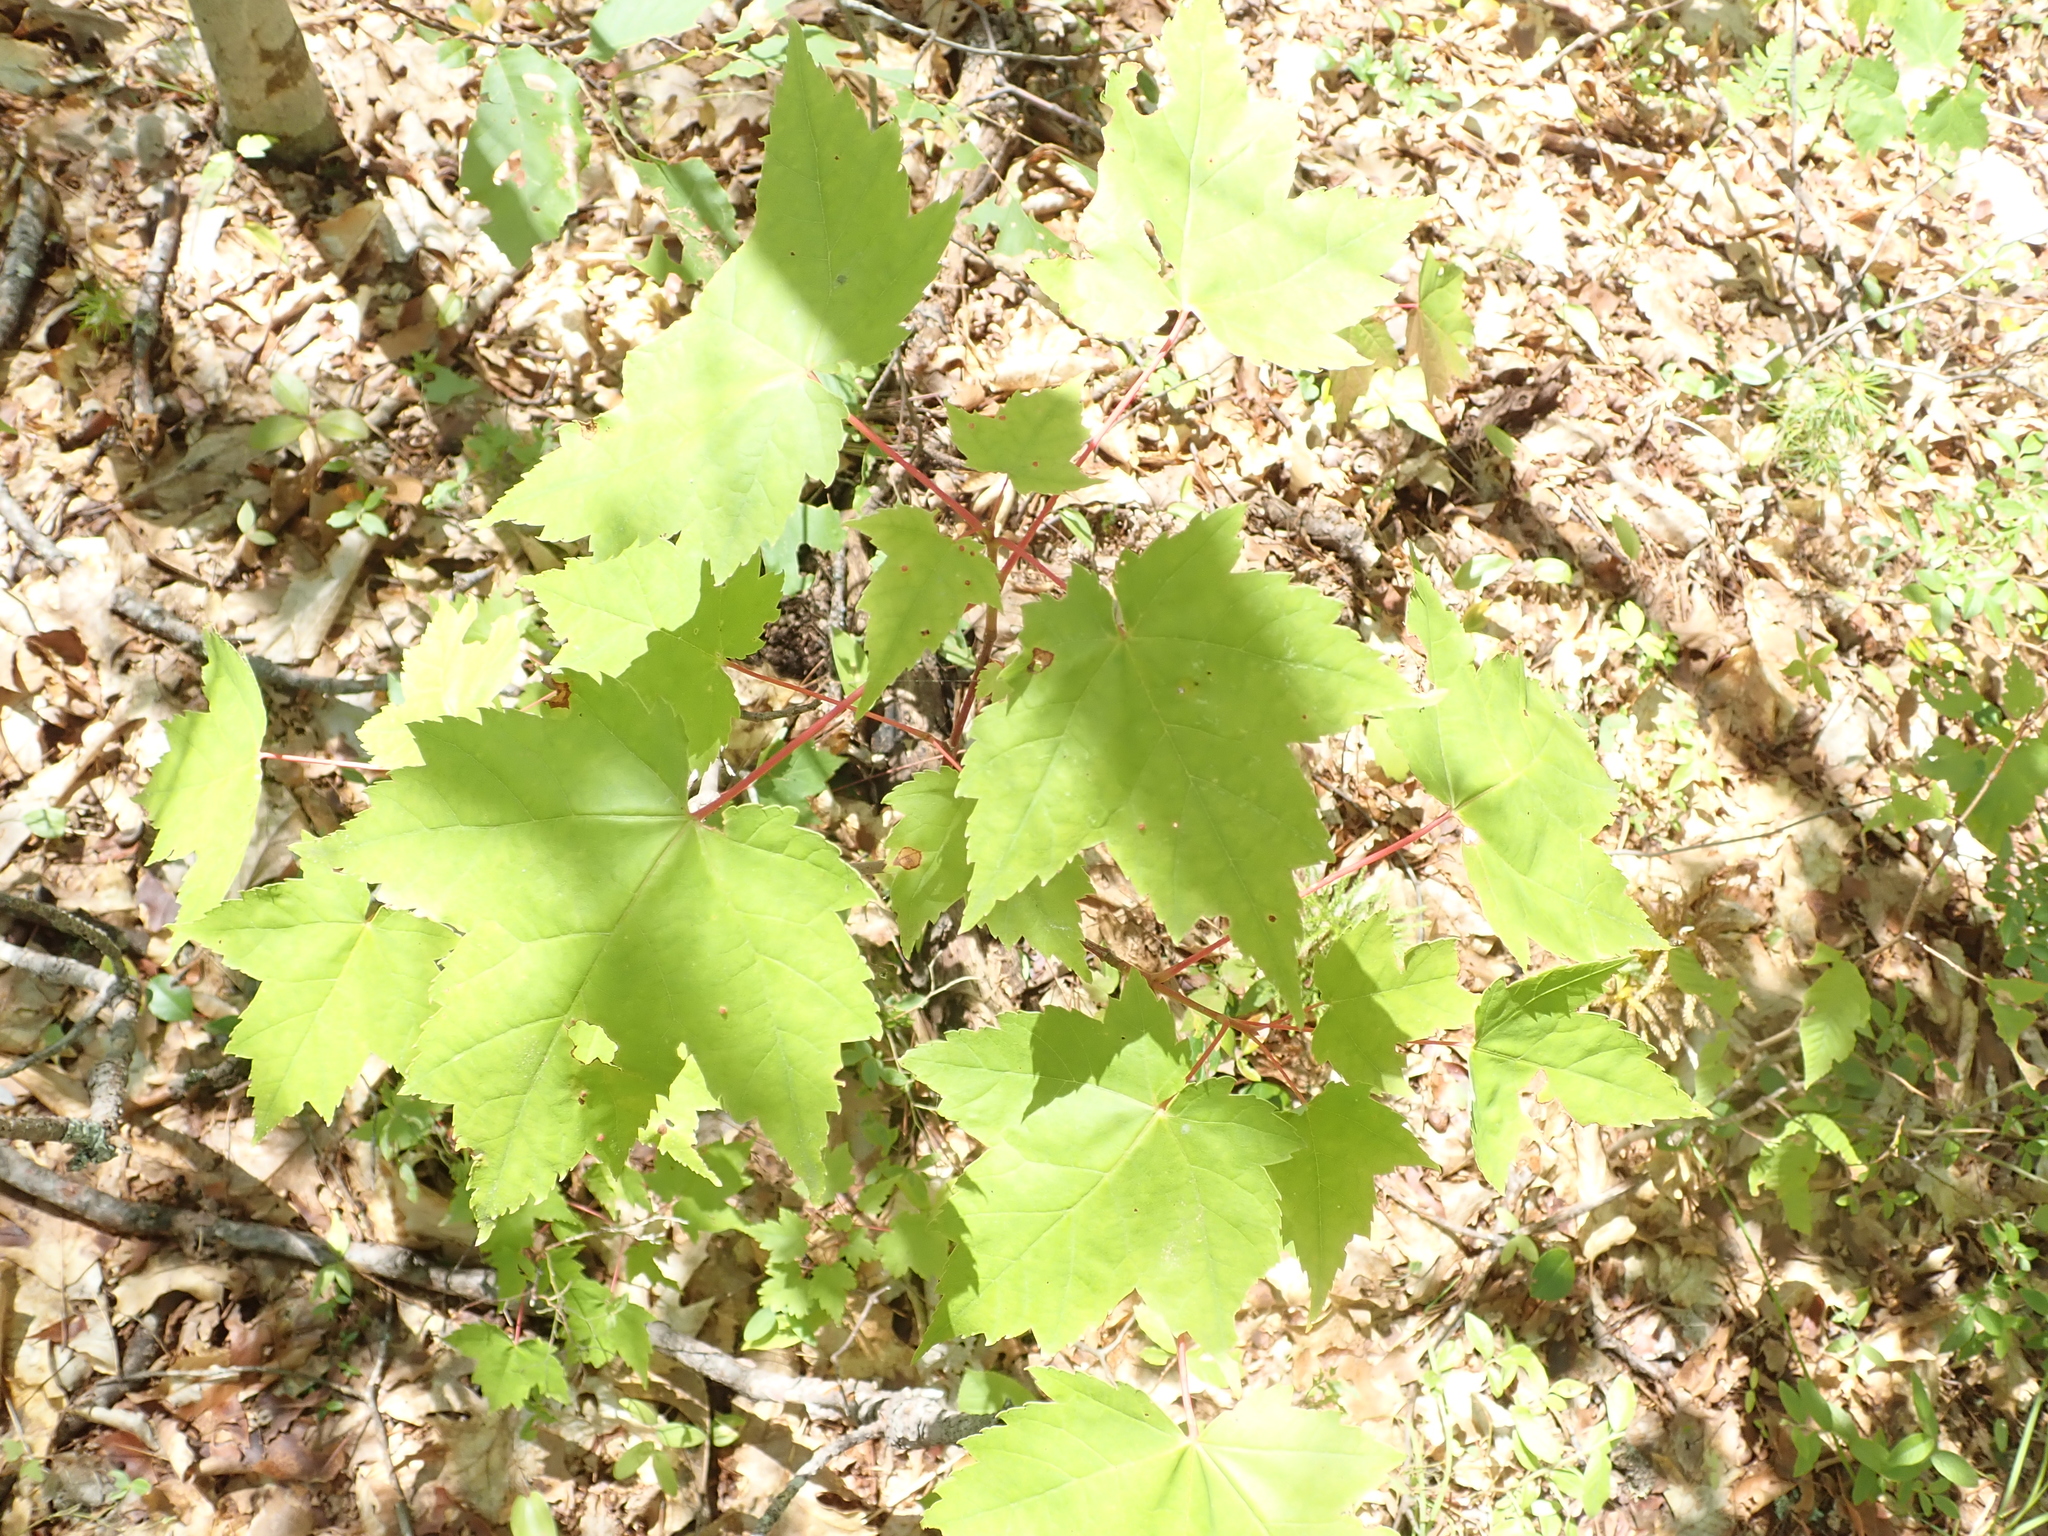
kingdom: Plantae
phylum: Tracheophyta
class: Magnoliopsida
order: Sapindales
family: Sapindaceae
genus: Acer
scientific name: Acer rubrum
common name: Red maple
